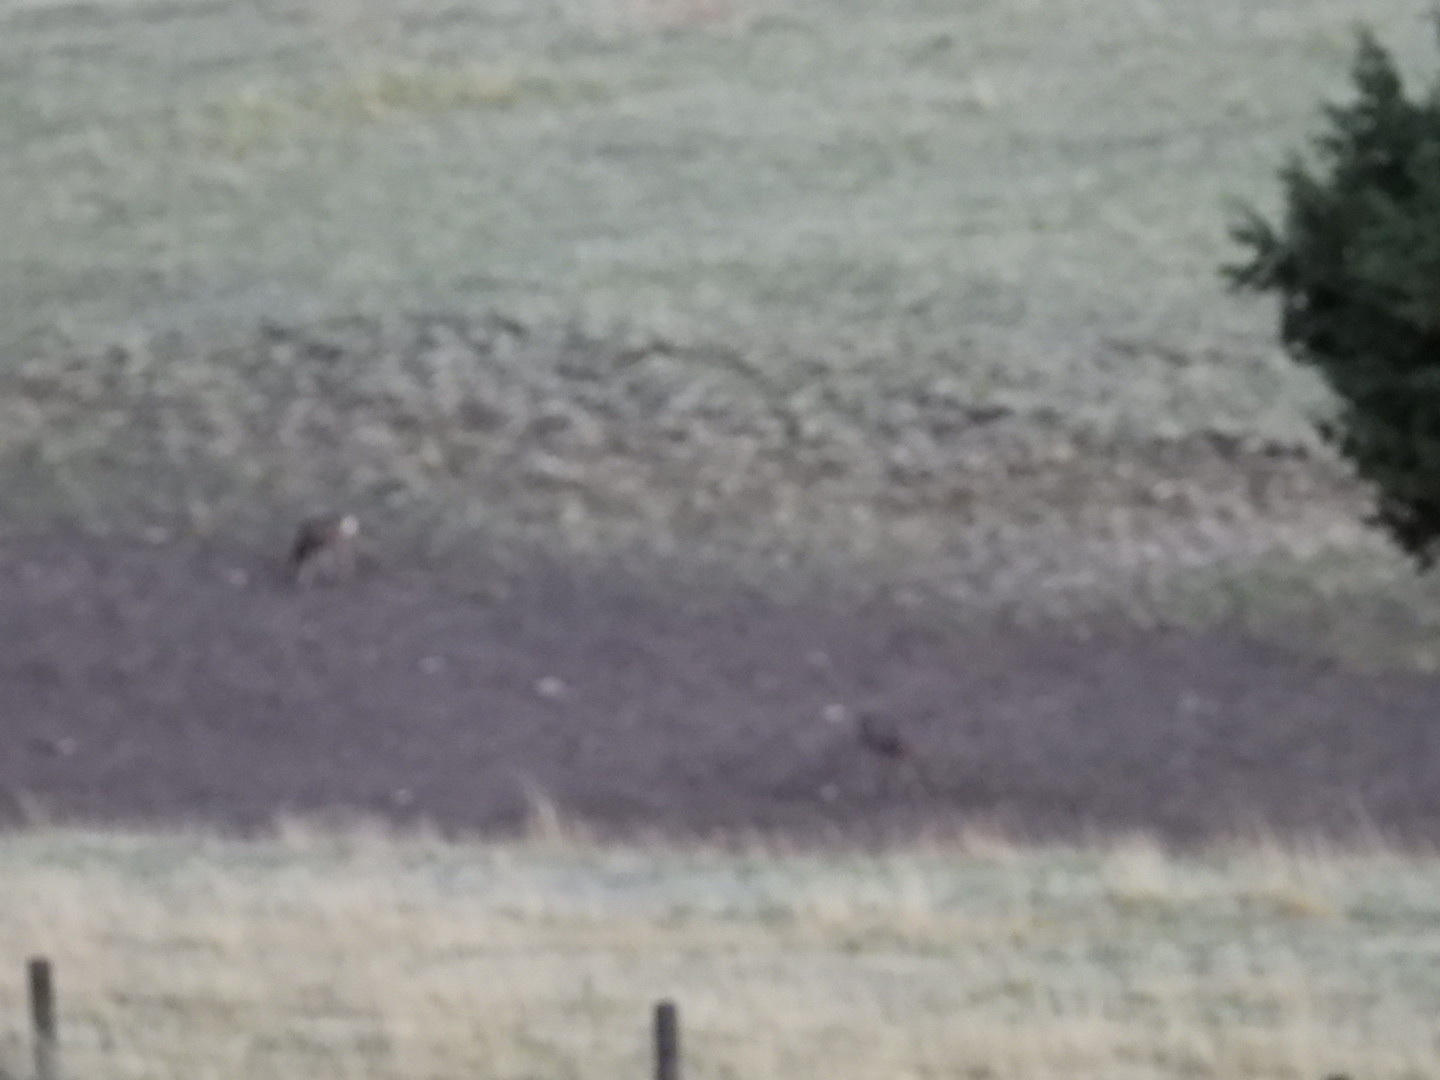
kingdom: Animalia
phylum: Chordata
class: Mammalia
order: Artiodactyla
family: Cervidae
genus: Odocoileus
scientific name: Odocoileus hemionus
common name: Mule deer
